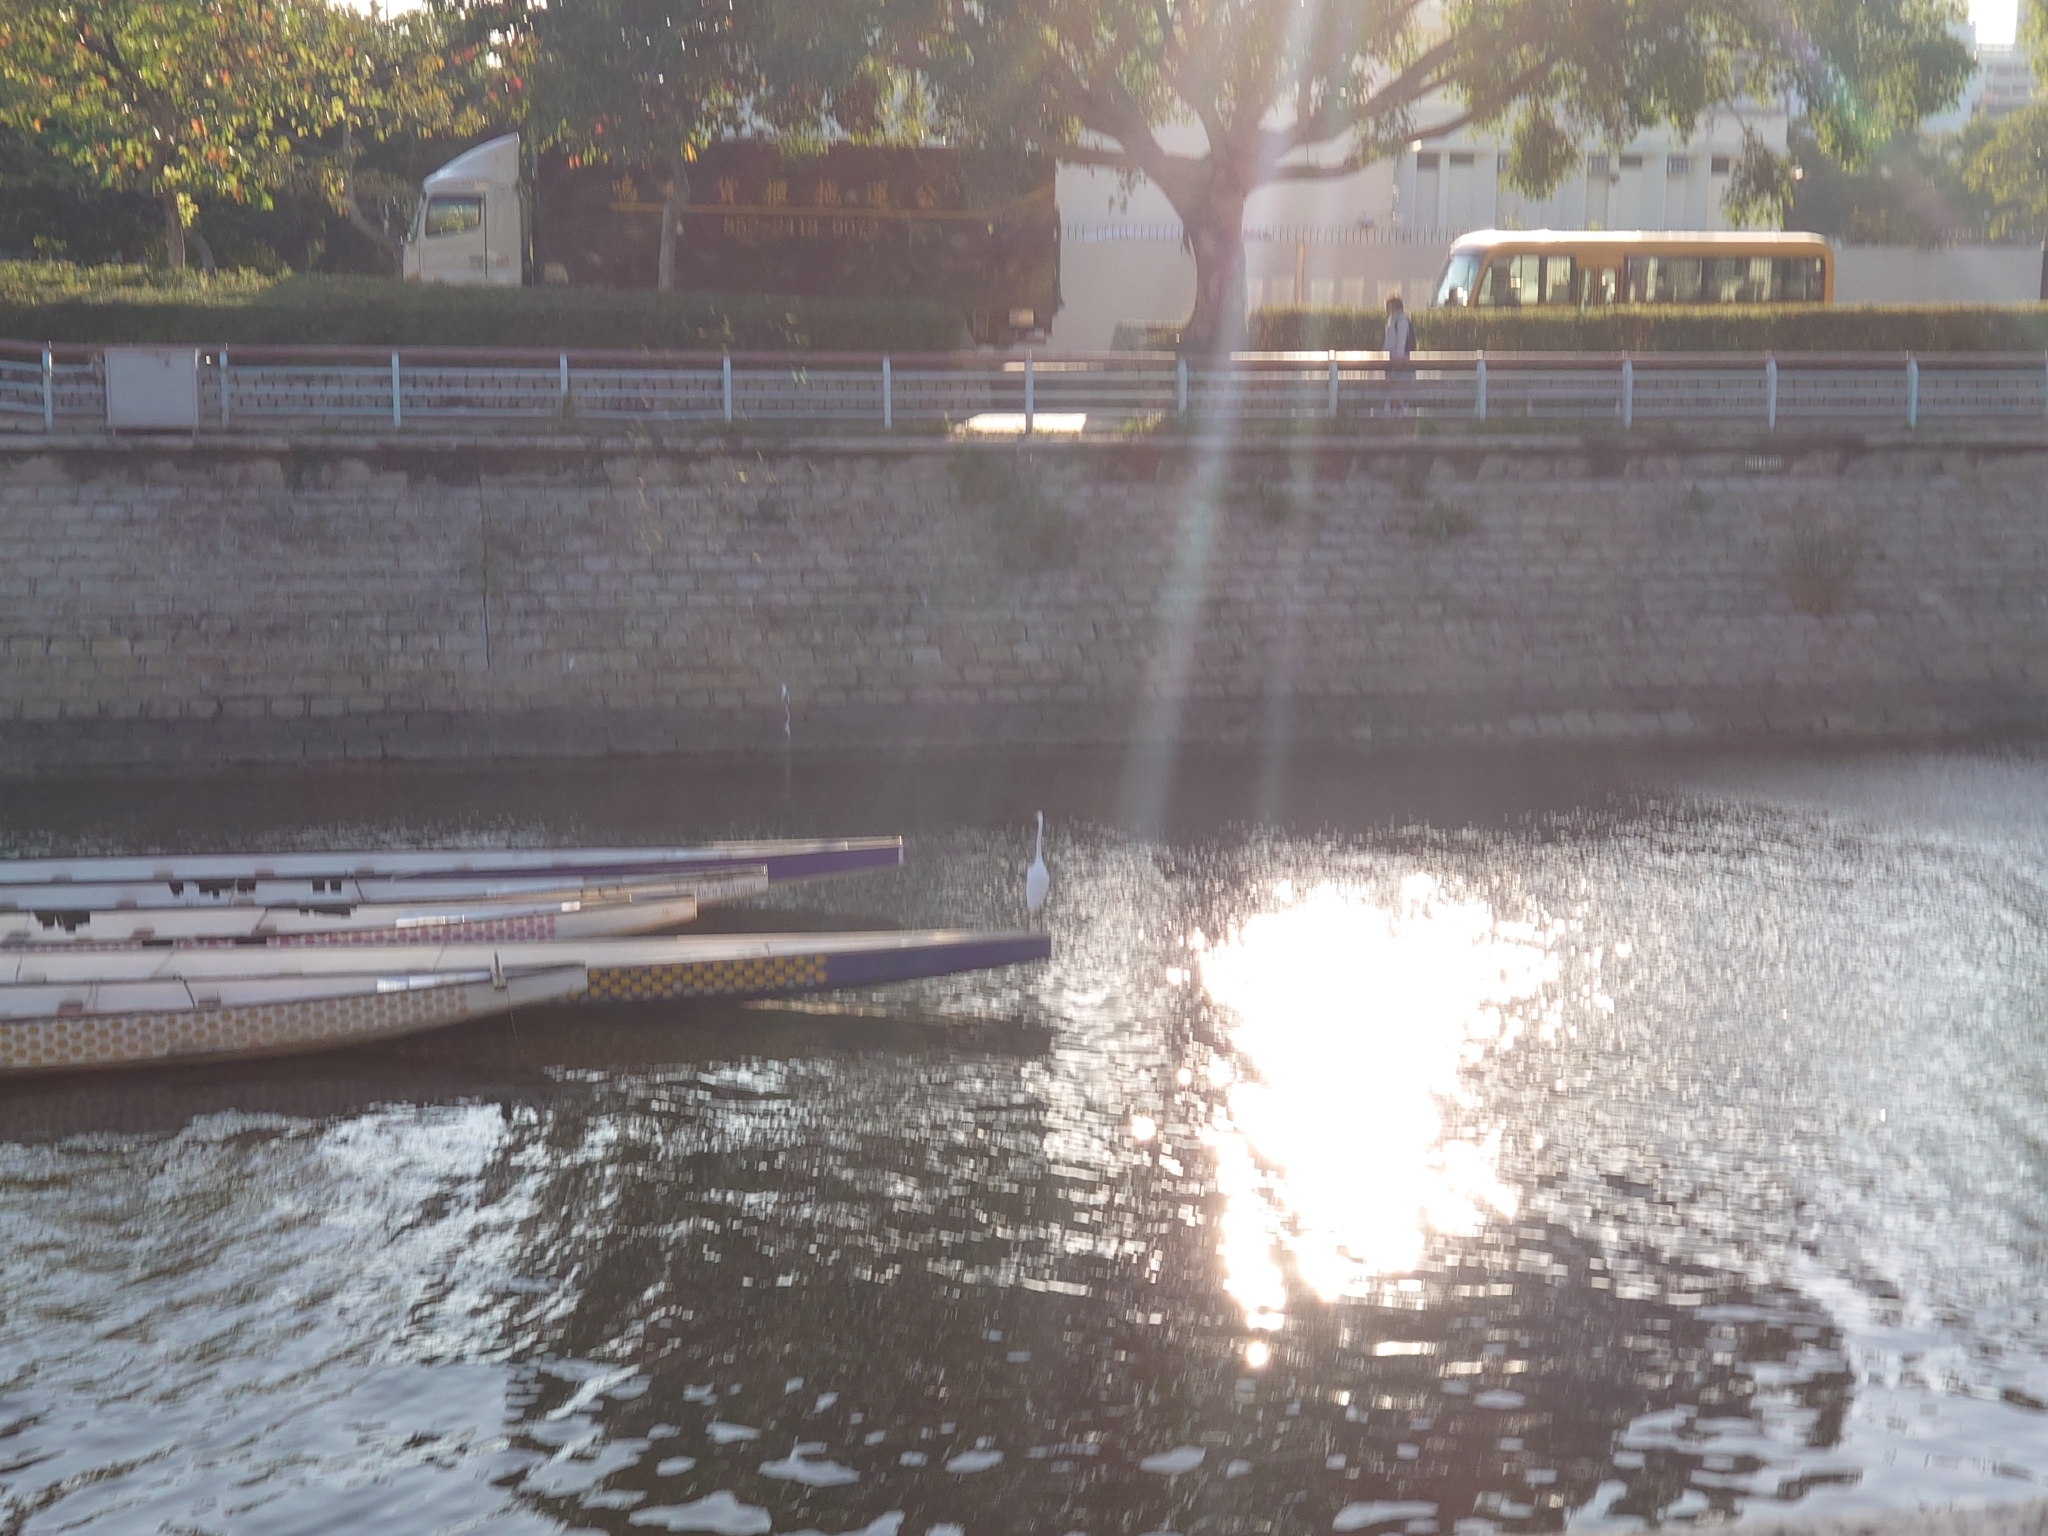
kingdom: Animalia
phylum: Chordata
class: Aves
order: Pelecaniformes
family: Ardeidae
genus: Ardea
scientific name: Ardea alba
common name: Great egret
